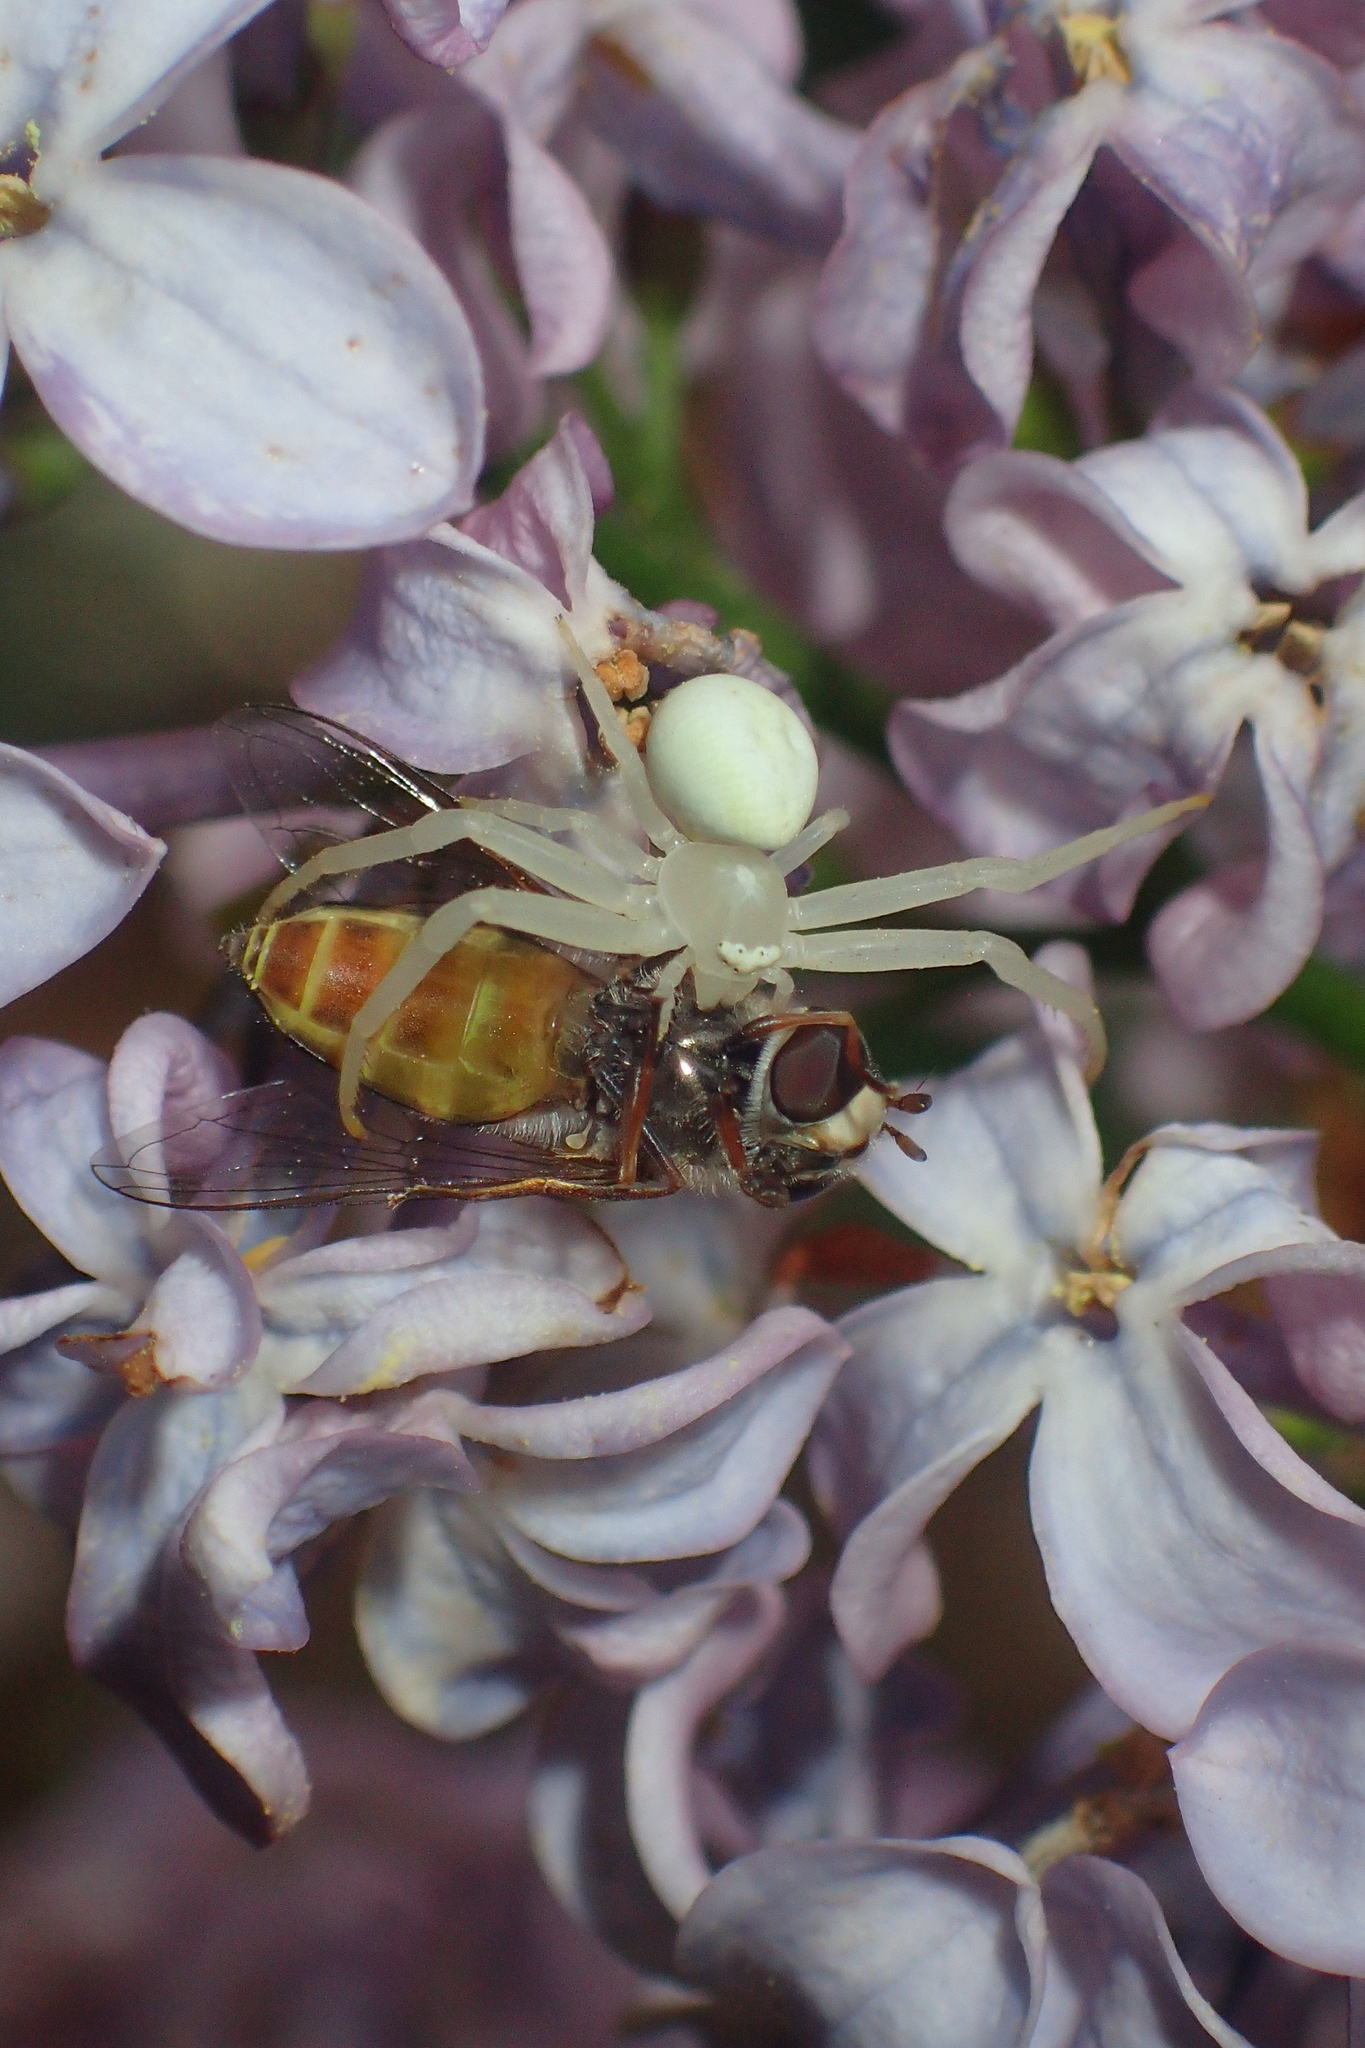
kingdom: Animalia
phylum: Arthropoda
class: Arachnida
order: Araneae
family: Thomisidae
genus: Misumena
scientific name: Misumena vatia
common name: Goldenrod crab spider
